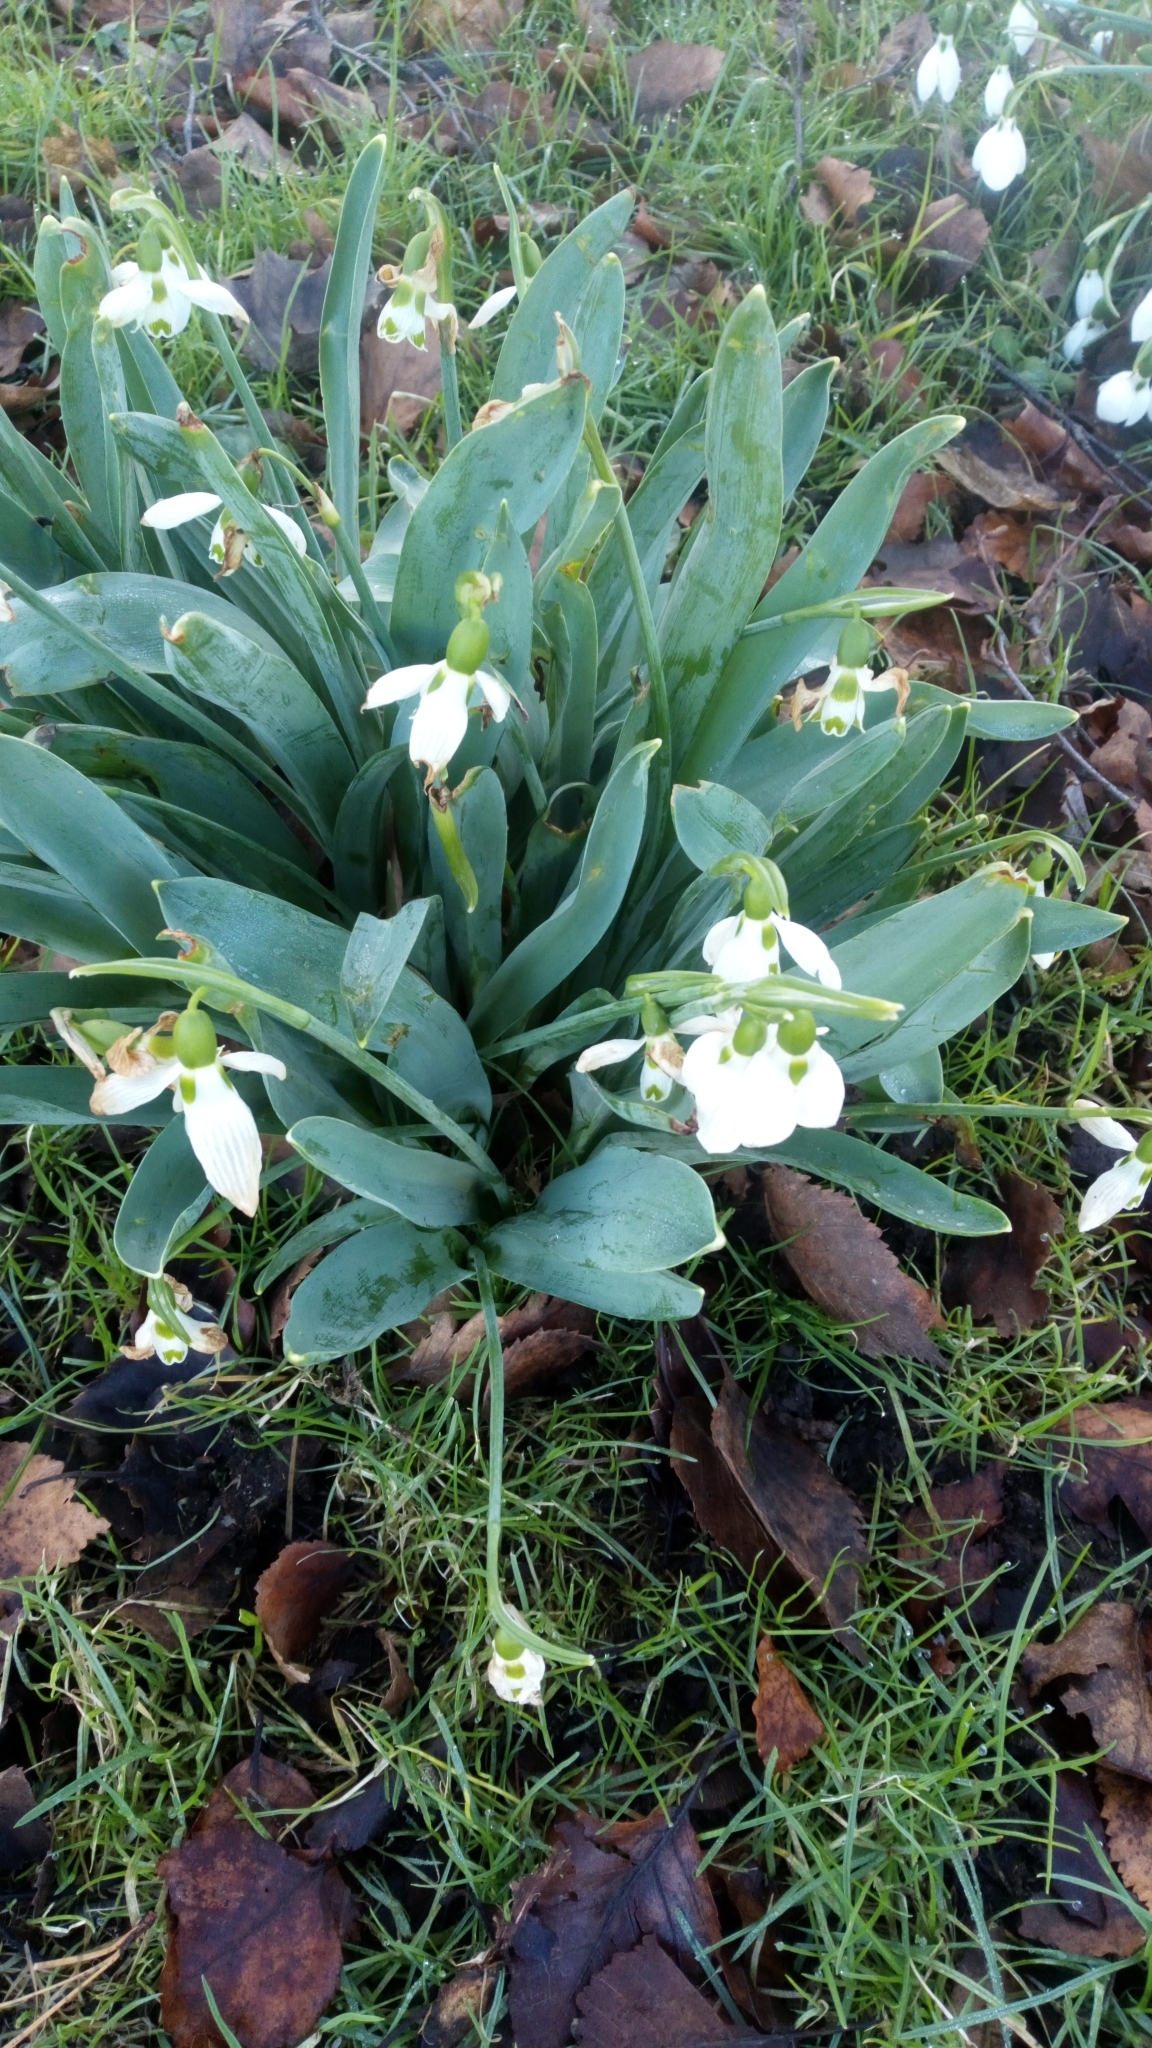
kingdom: Plantae
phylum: Tracheophyta
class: Liliopsida
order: Asparagales
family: Amaryllidaceae
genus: Galanthus
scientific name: Galanthus elwesii
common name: Greater snowdrop
